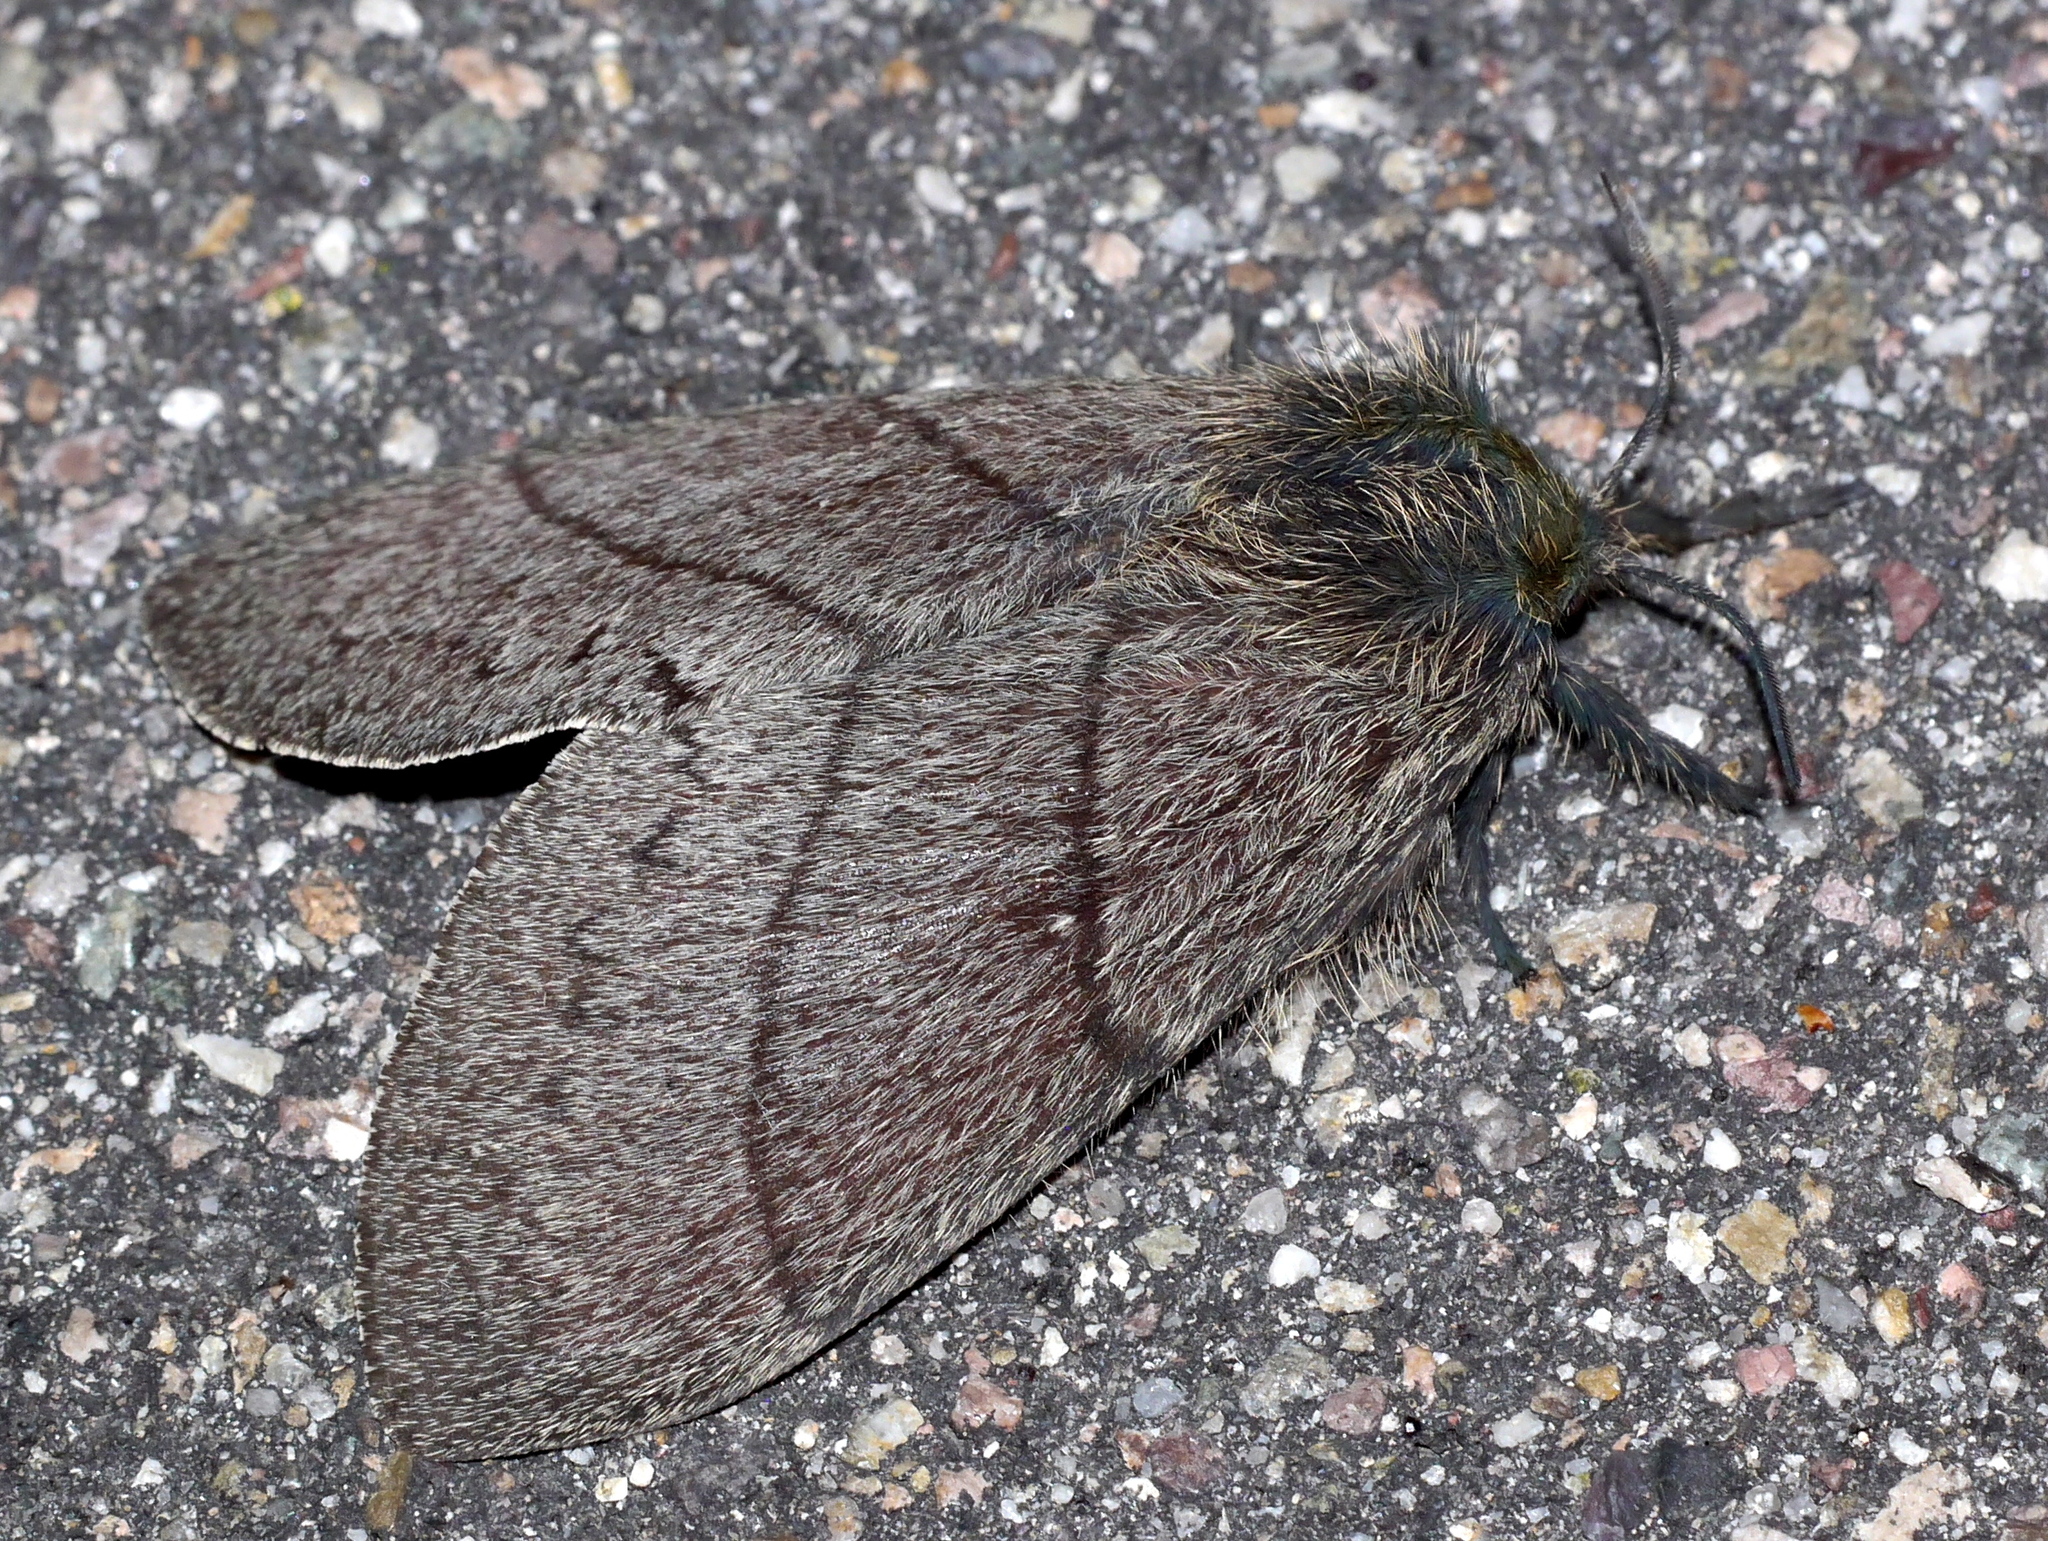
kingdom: Animalia
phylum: Arthropoda
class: Insecta
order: Lepidoptera
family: Lasiocampidae
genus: Gloveria
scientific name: Gloveria gargamelle
